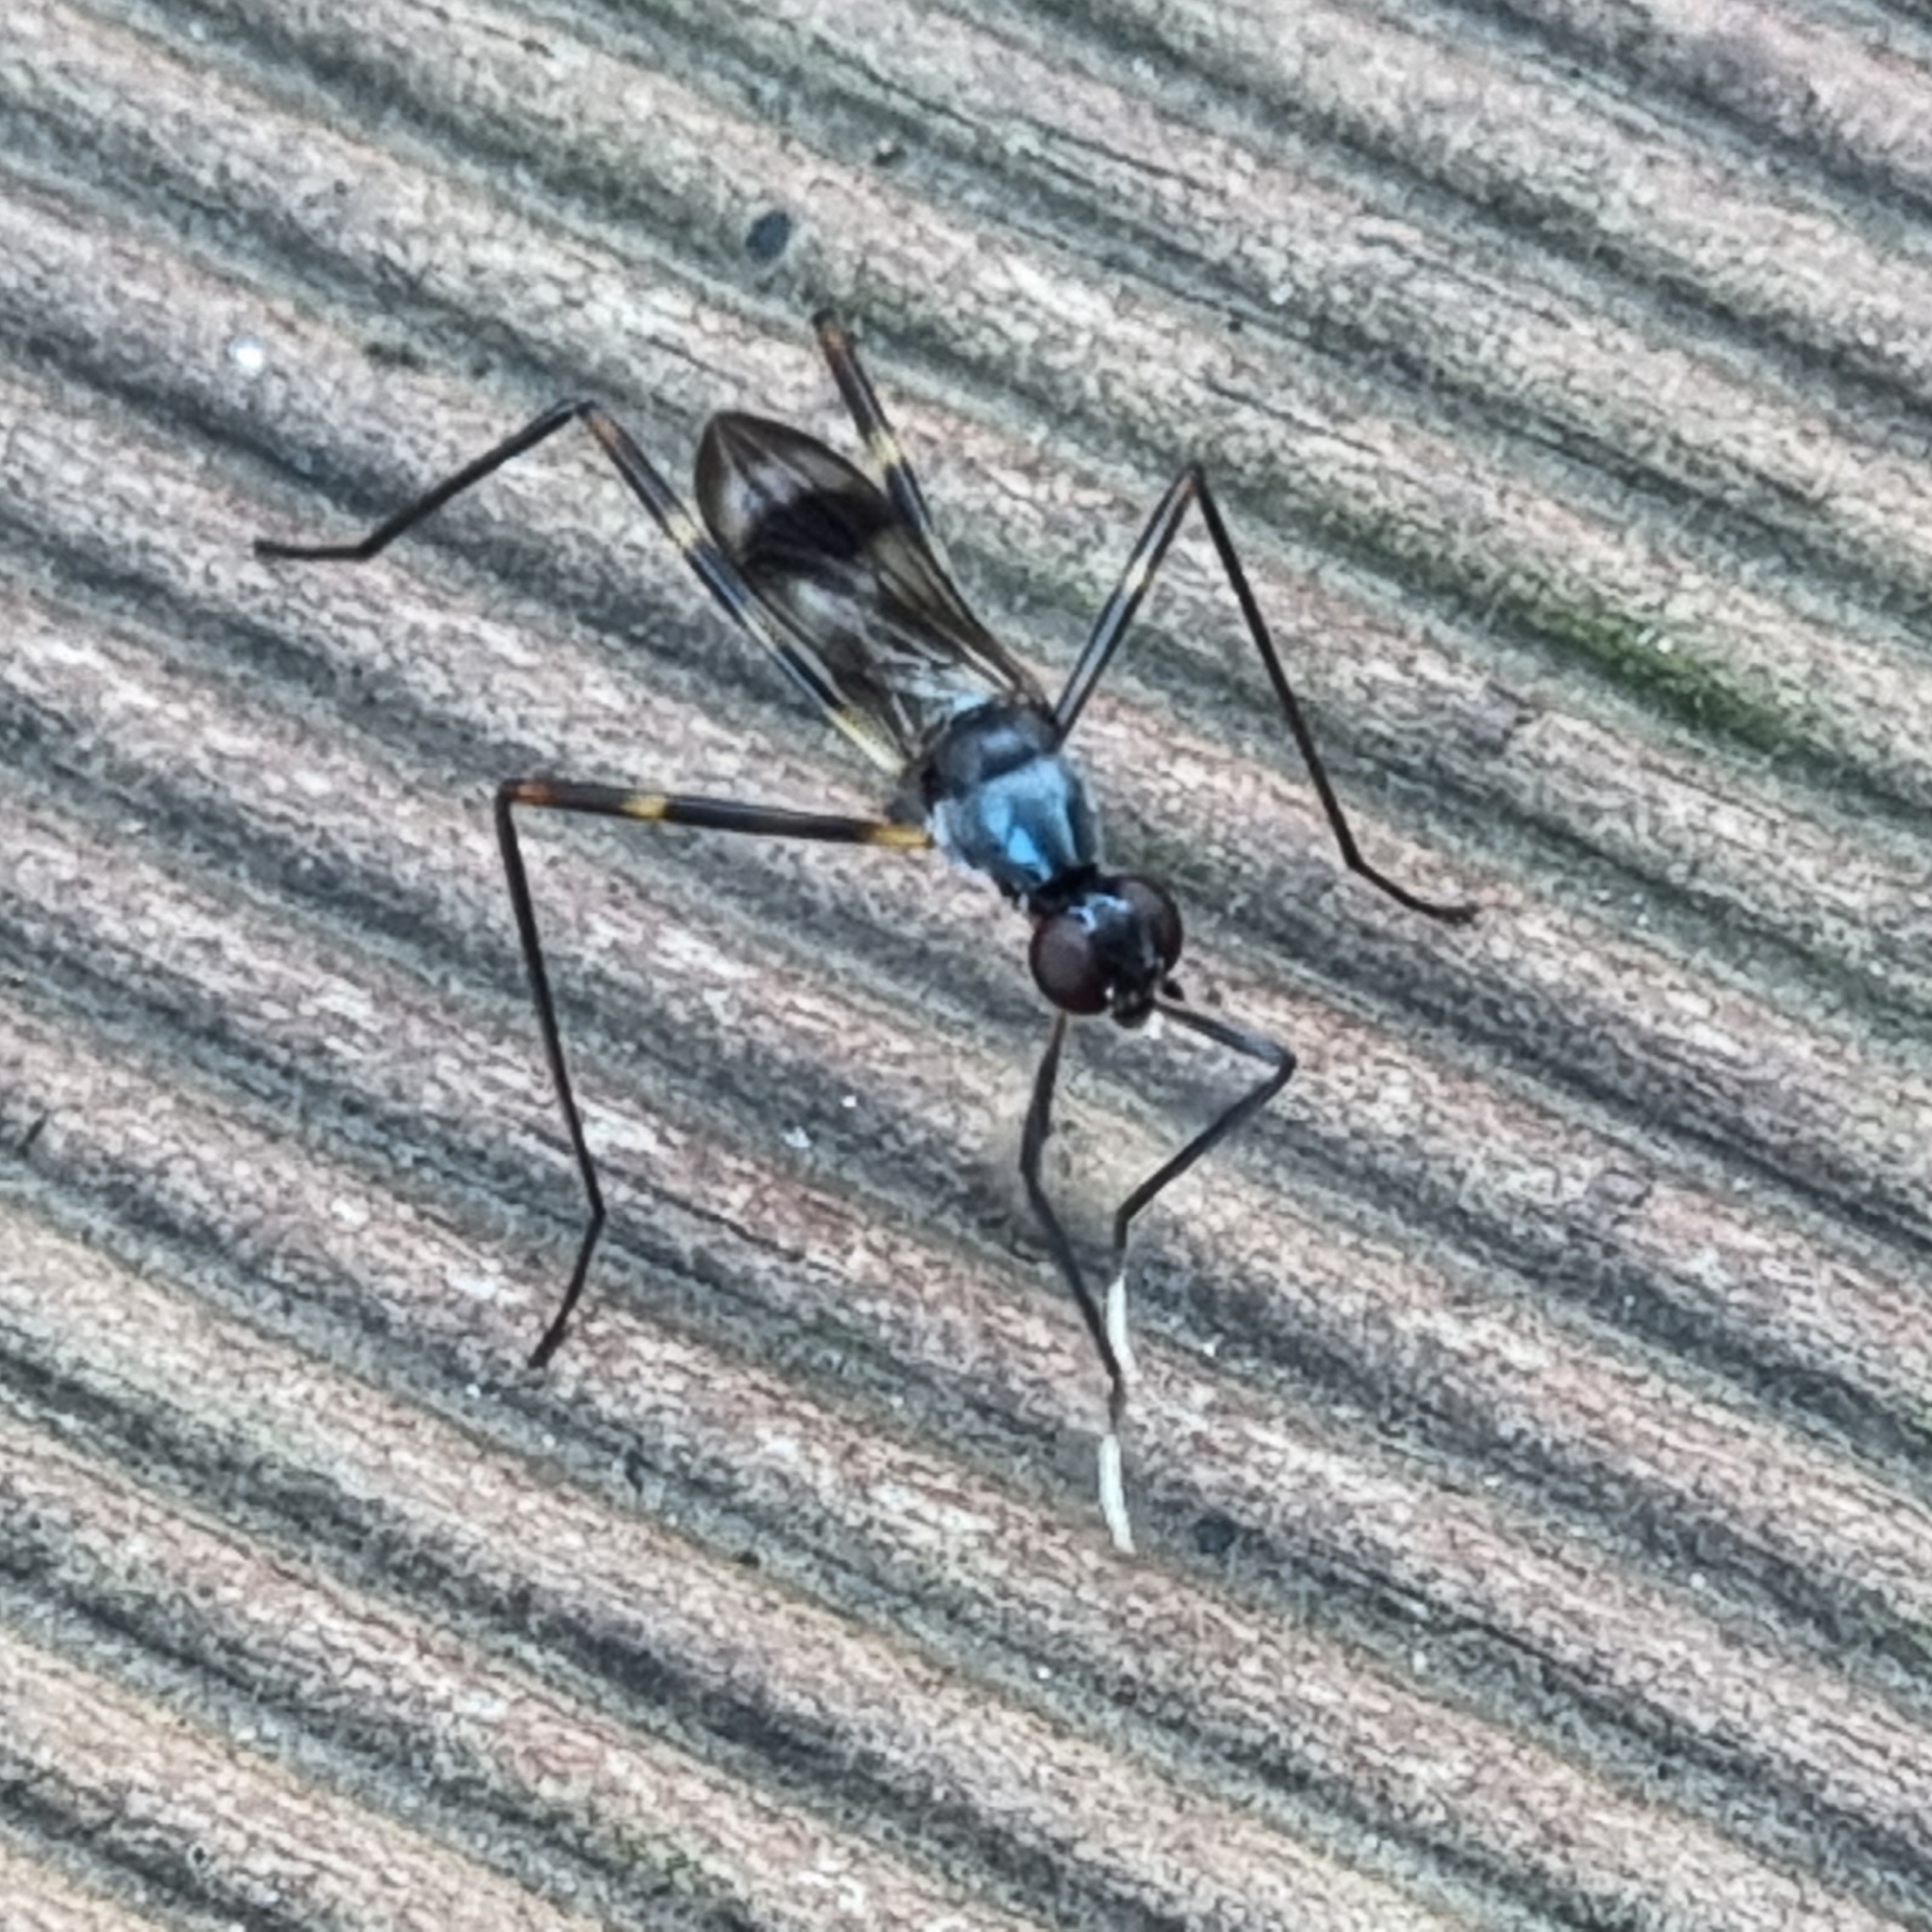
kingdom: Animalia
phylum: Arthropoda
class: Insecta
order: Diptera
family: Micropezidae
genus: Hybobata
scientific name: Hybobata
